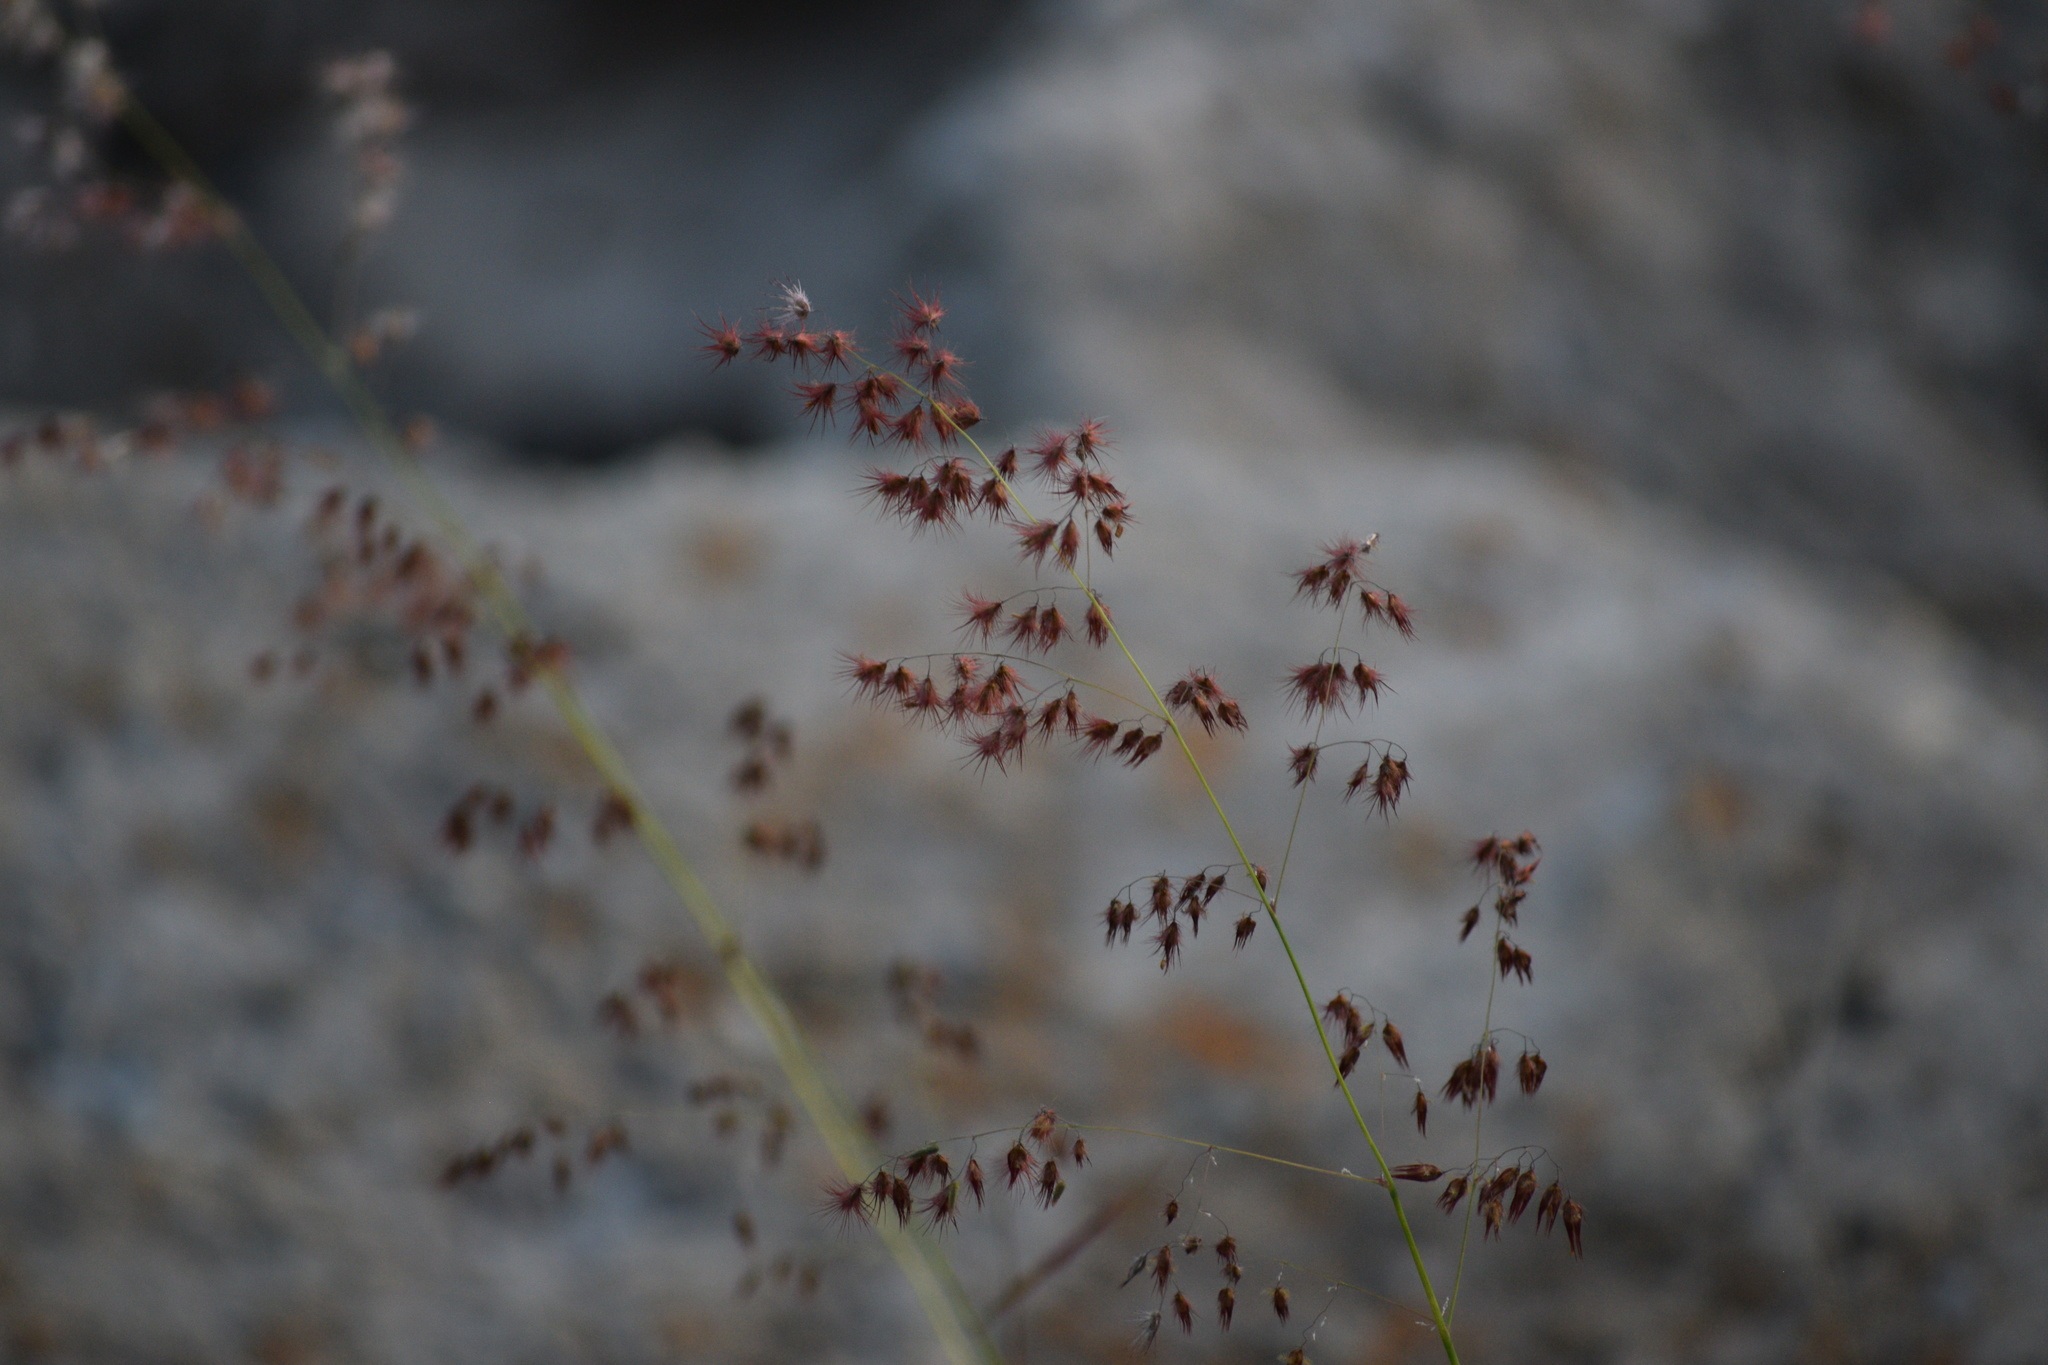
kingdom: Plantae
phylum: Tracheophyta
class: Liliopsida
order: Poales
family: Poaceae
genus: Melinis
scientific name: Melinis repens
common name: Rose natal grass
